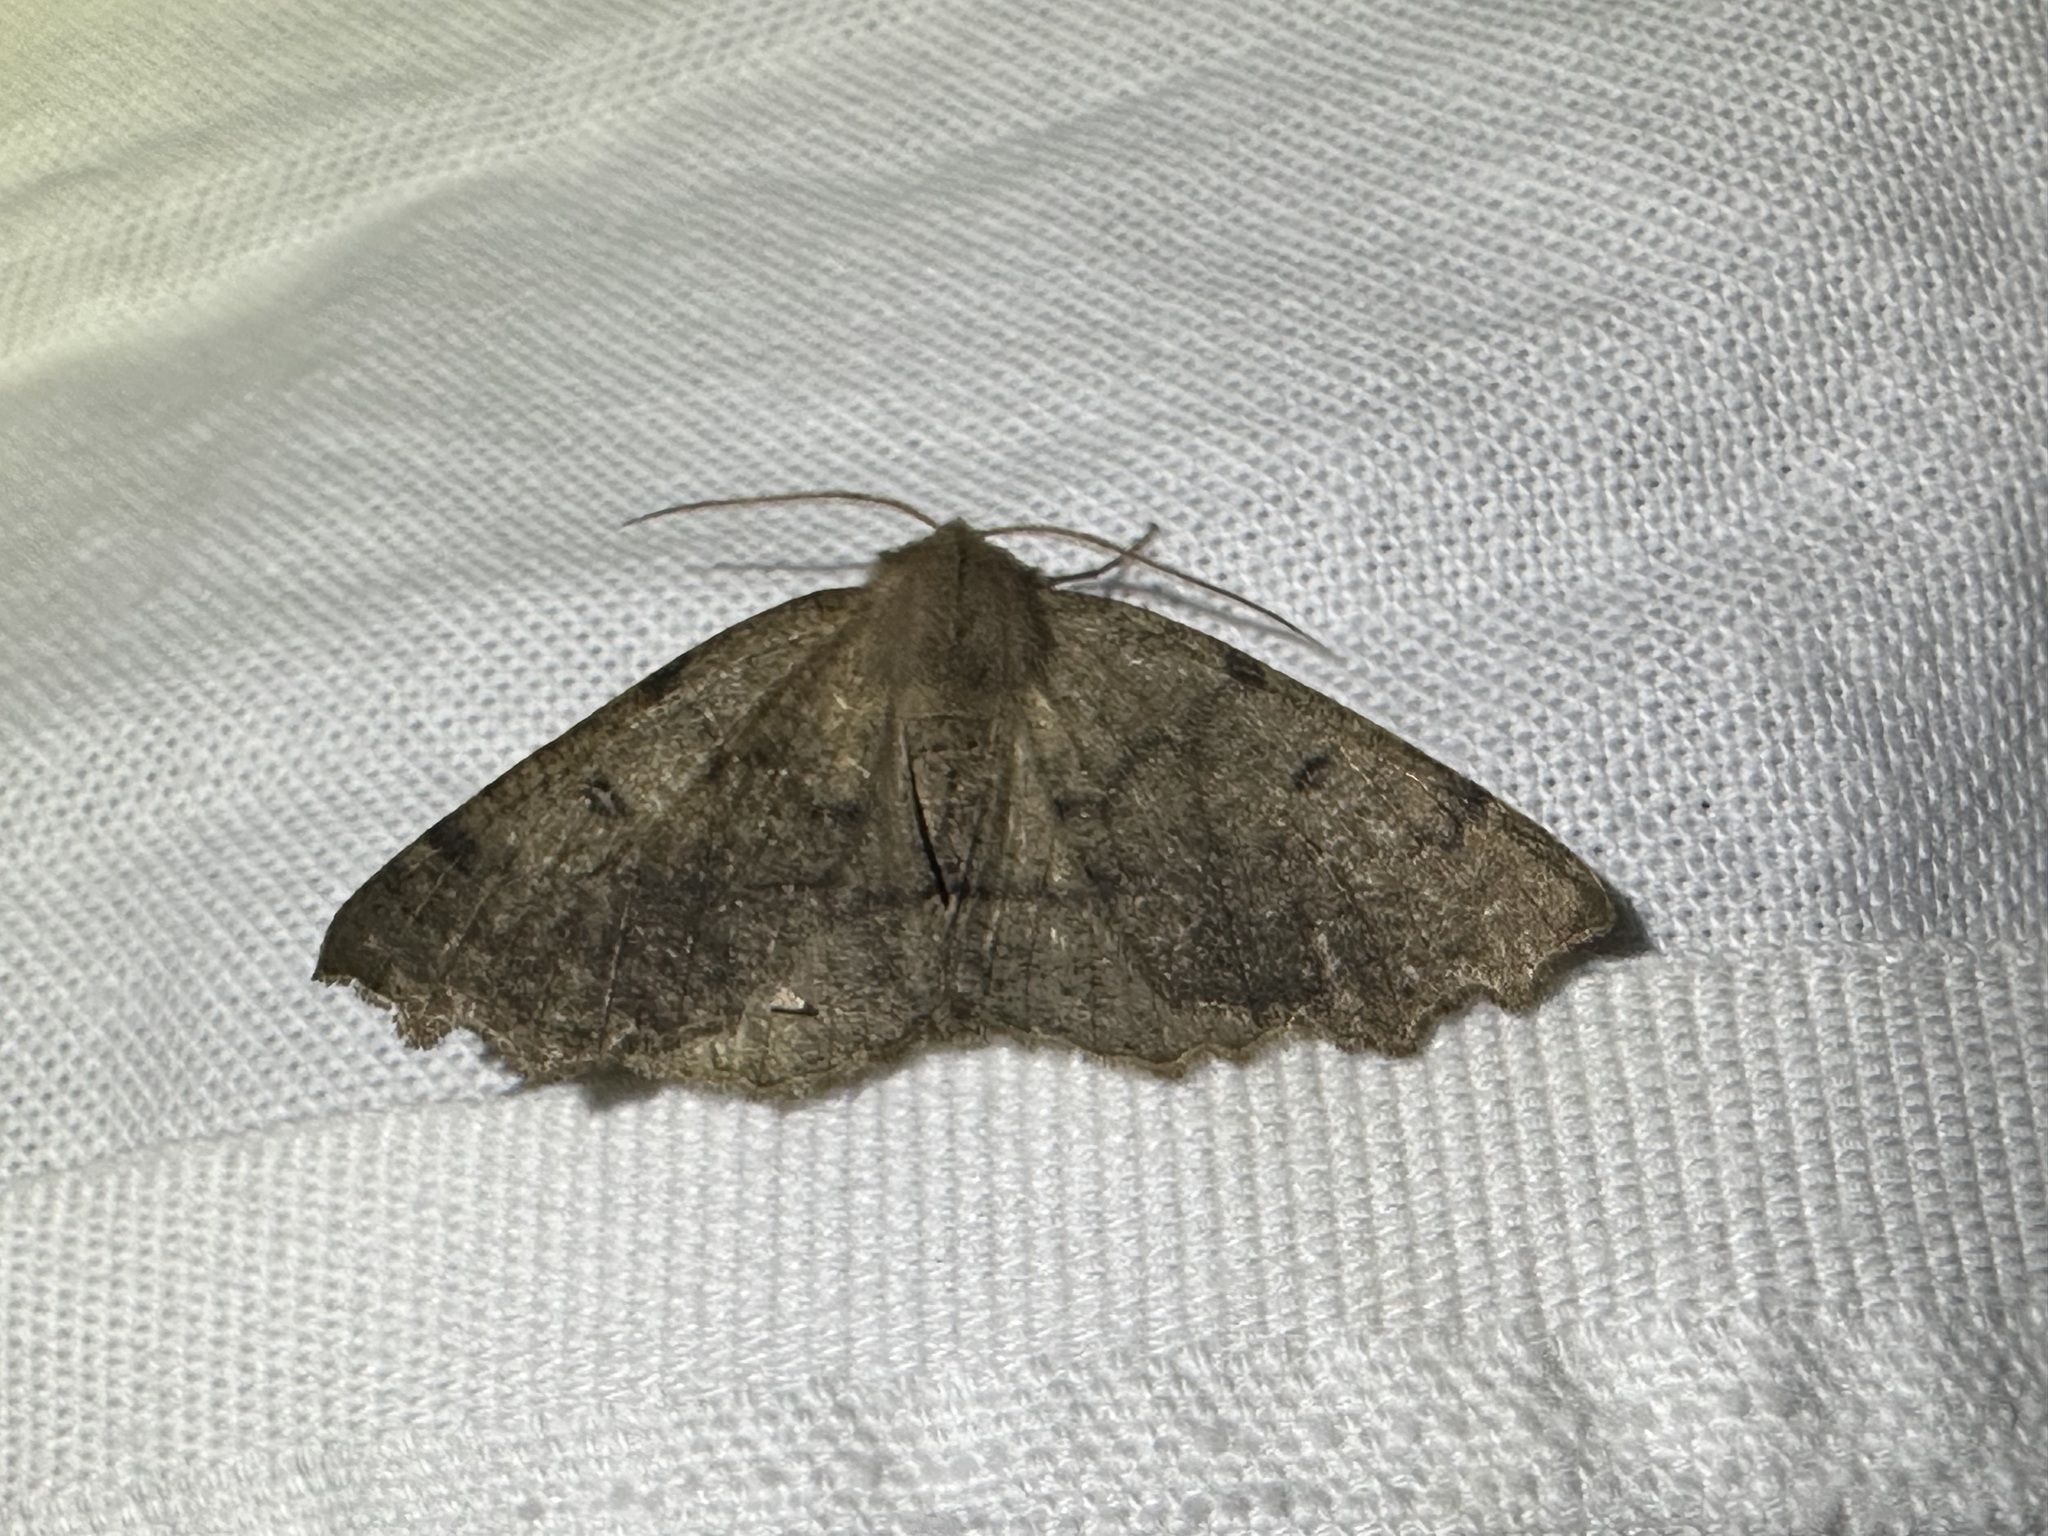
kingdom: Animalia
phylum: Arthropoda
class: Insecta
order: Lepidoptera
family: Geometridae
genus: Odontopera
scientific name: Odontopera bidentata
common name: Scalloped hazel
